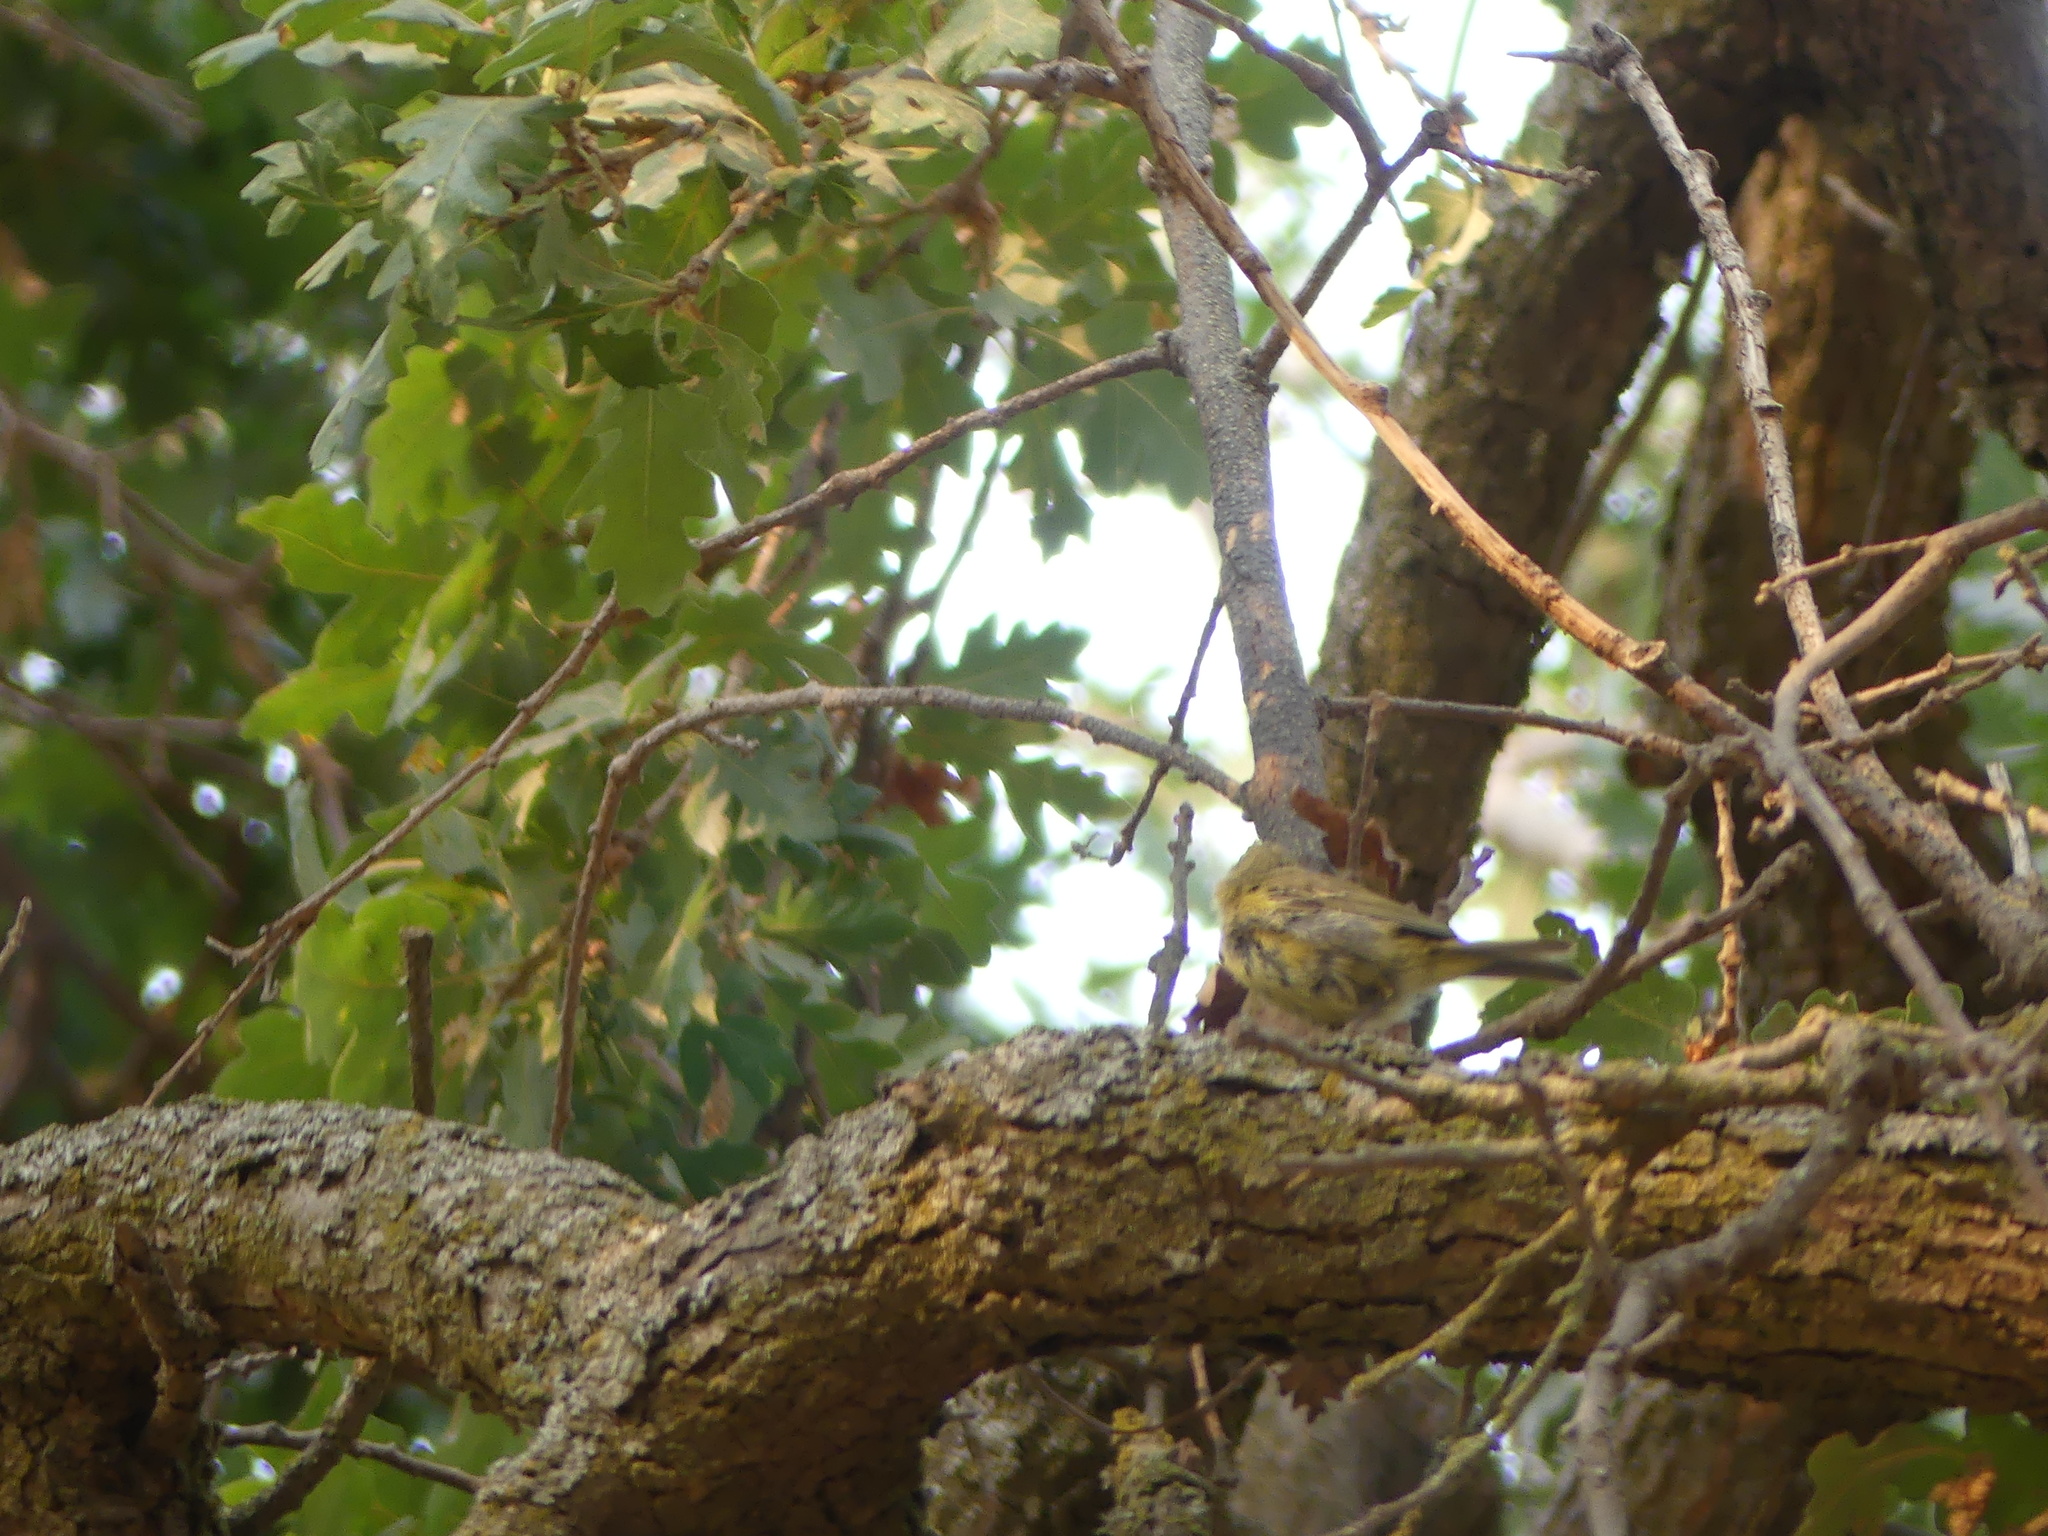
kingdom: Animalia
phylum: Chordata
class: Aves
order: Passeriformes
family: Parulidae
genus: Leiothlypis
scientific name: Leiothlypis celata
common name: Orange-crowned warbler
